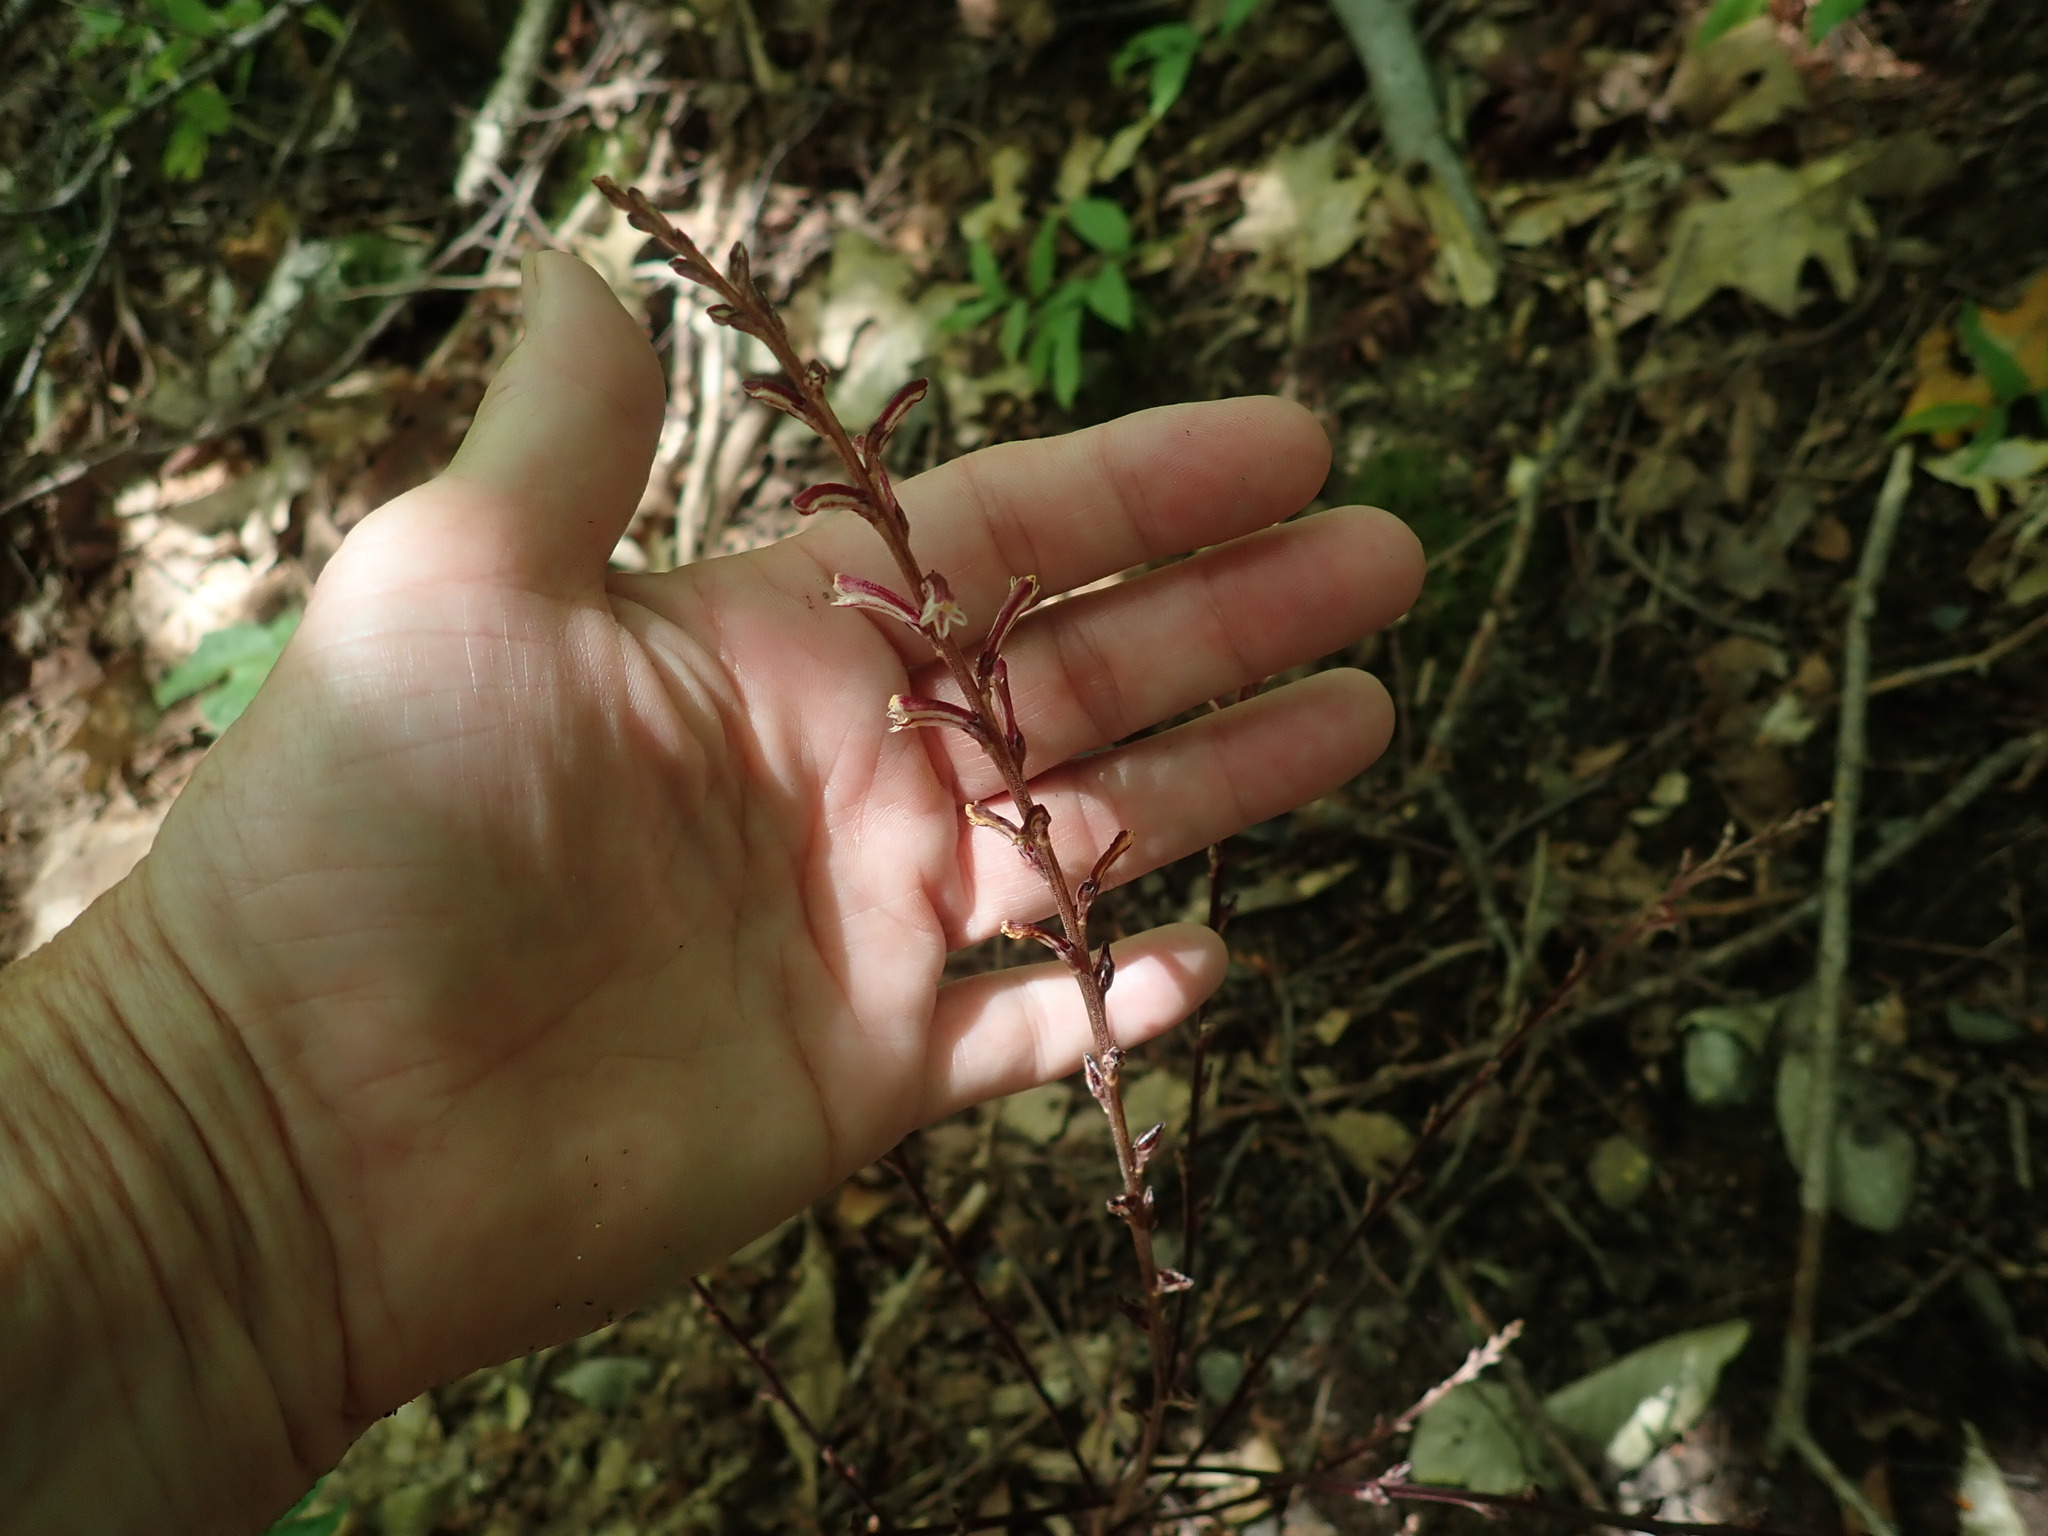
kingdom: Plantae
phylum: Tracheophyta
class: Magnoliopsida
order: Lamiales
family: Orobanchaceae
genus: Epifagus
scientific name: Epifagus virginiana
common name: Beechdrops
